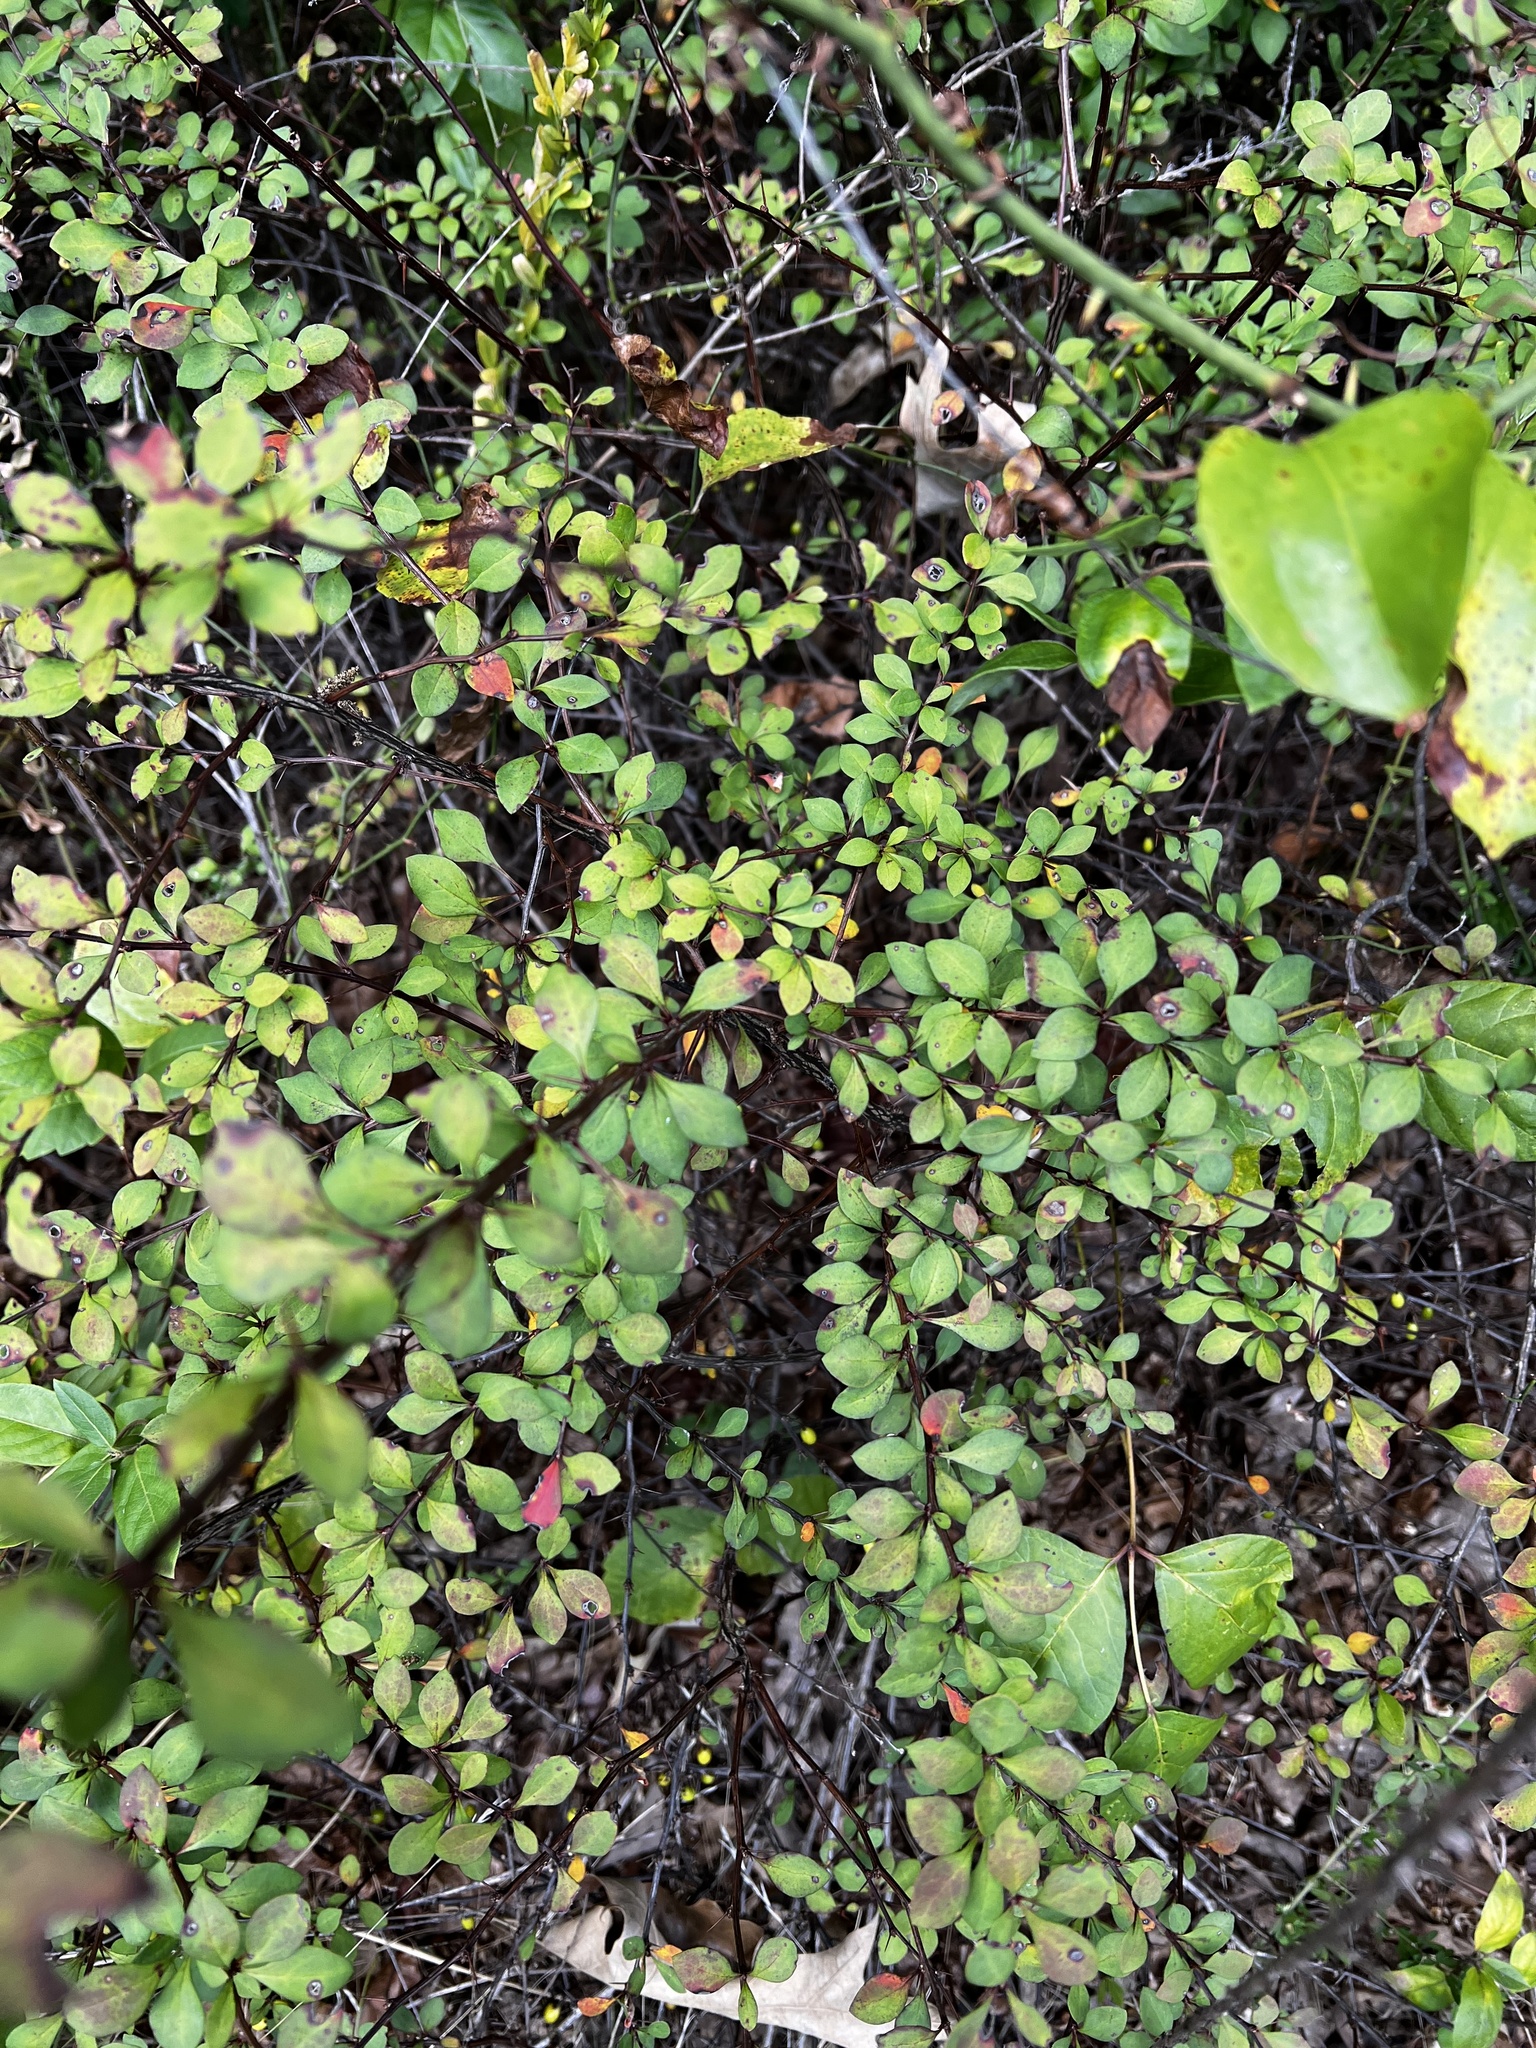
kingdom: Plantae
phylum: Tracheophyta
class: Magnoliopsida
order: Ranunculales
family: Berberidaceae
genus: Berberis
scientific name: Berberis thunbergii
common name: Japanese barberry
